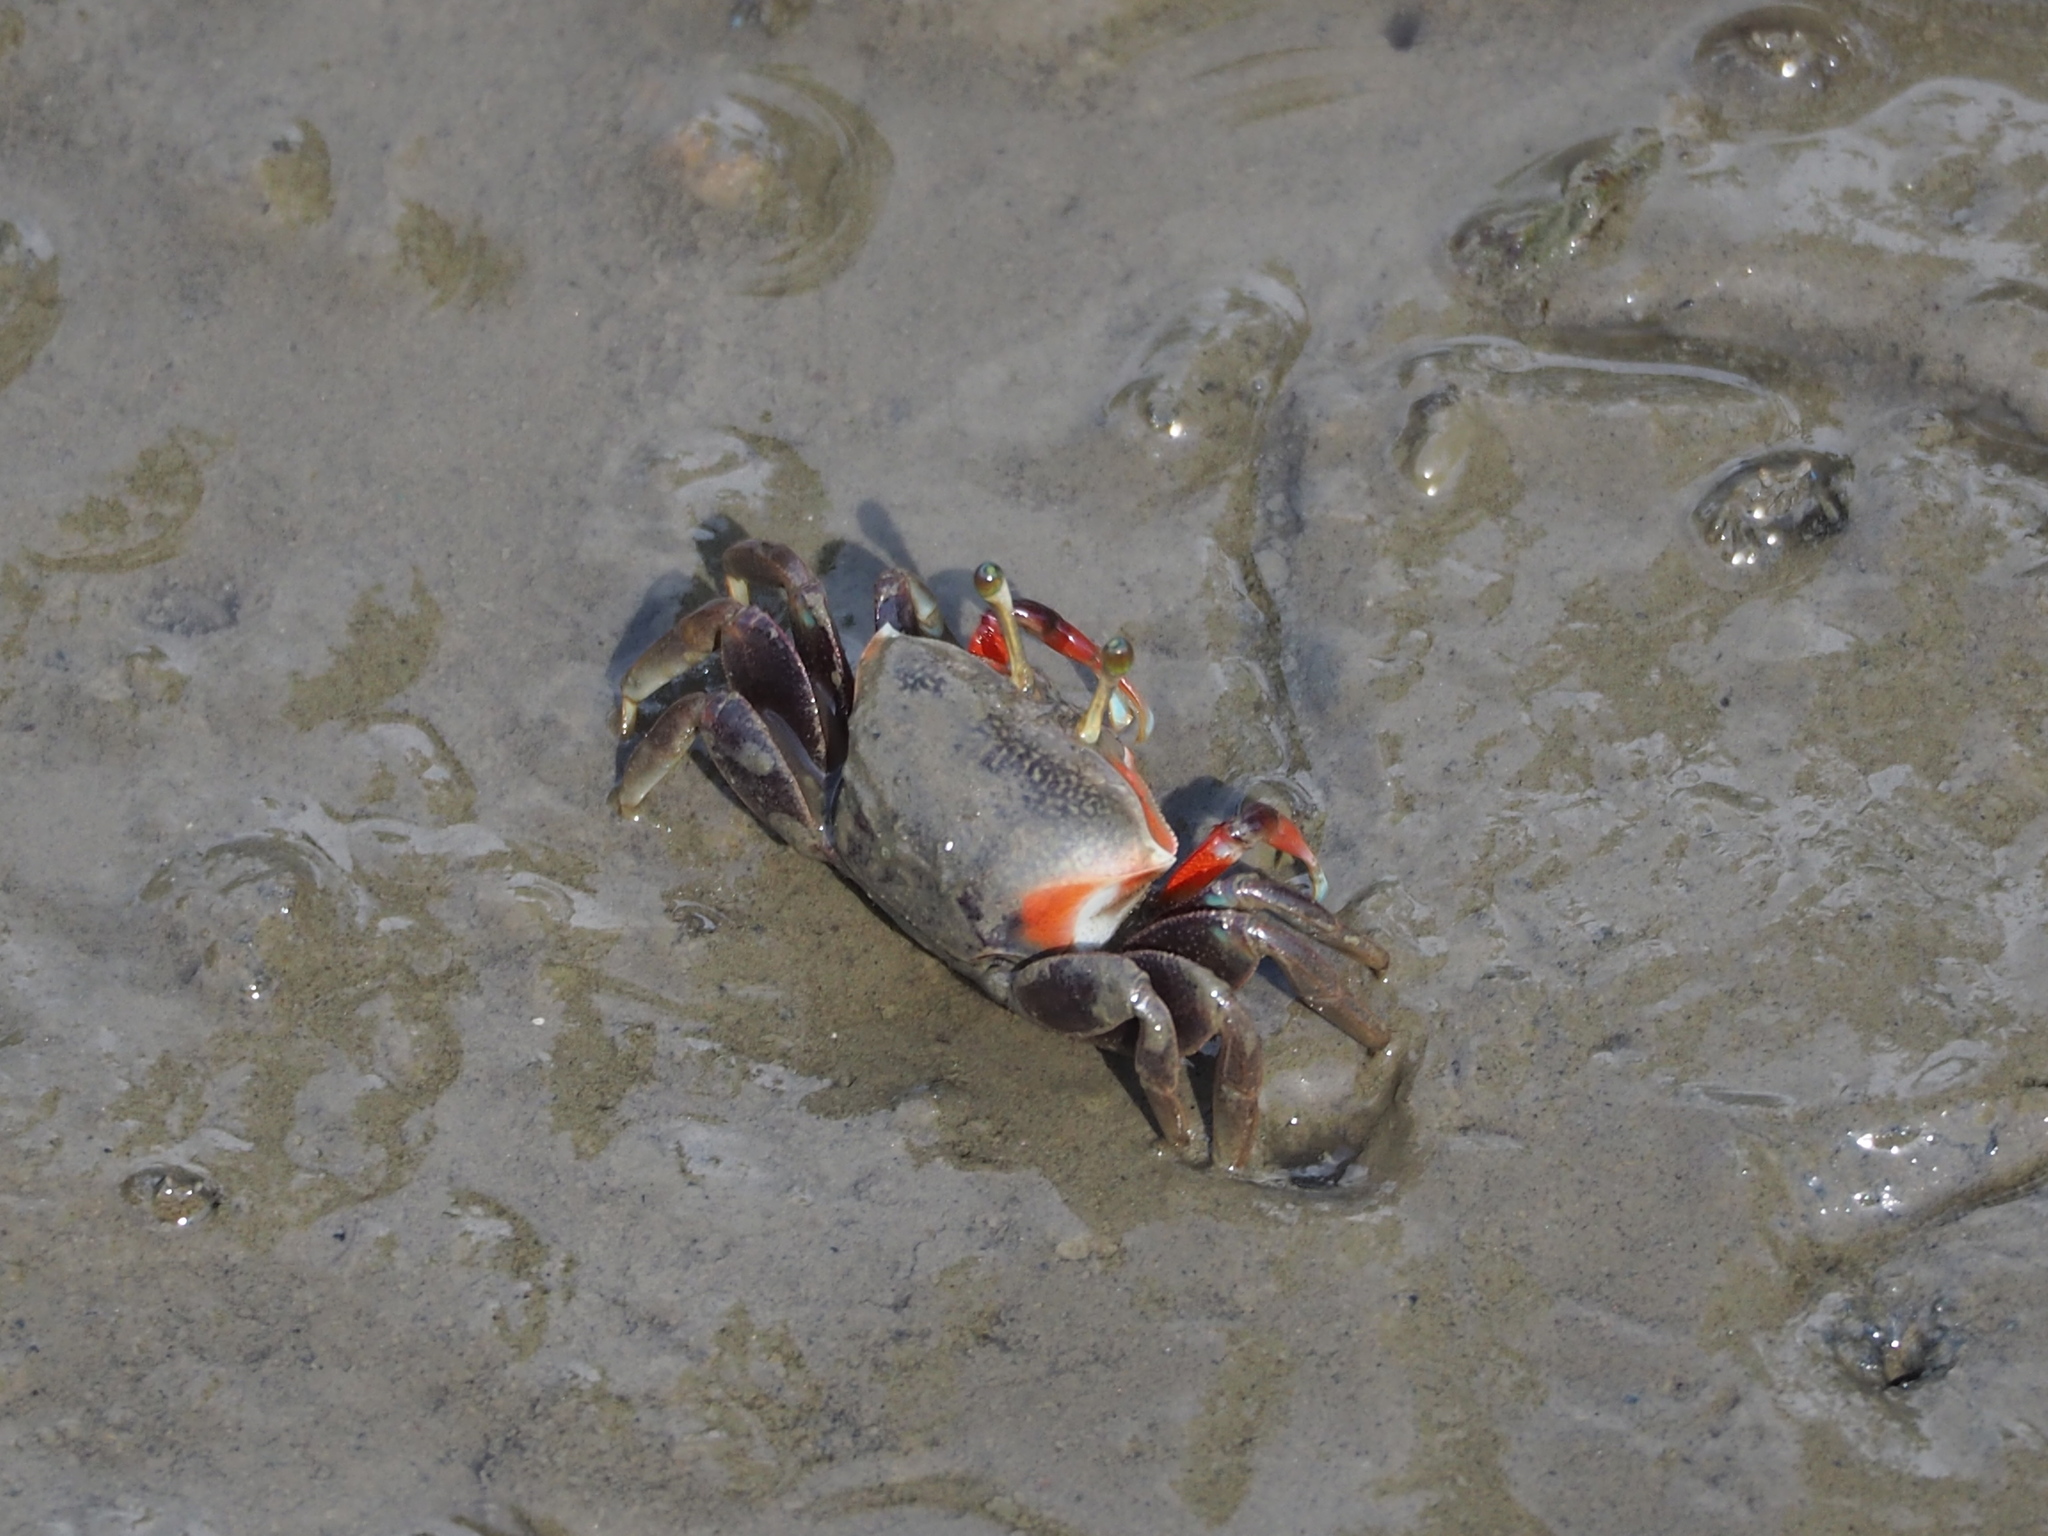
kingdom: Animalia
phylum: Arthropoda
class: Malacostraca
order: Decapoda
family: Ocypodidae
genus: Tubuca
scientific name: Tubuca arcuata
